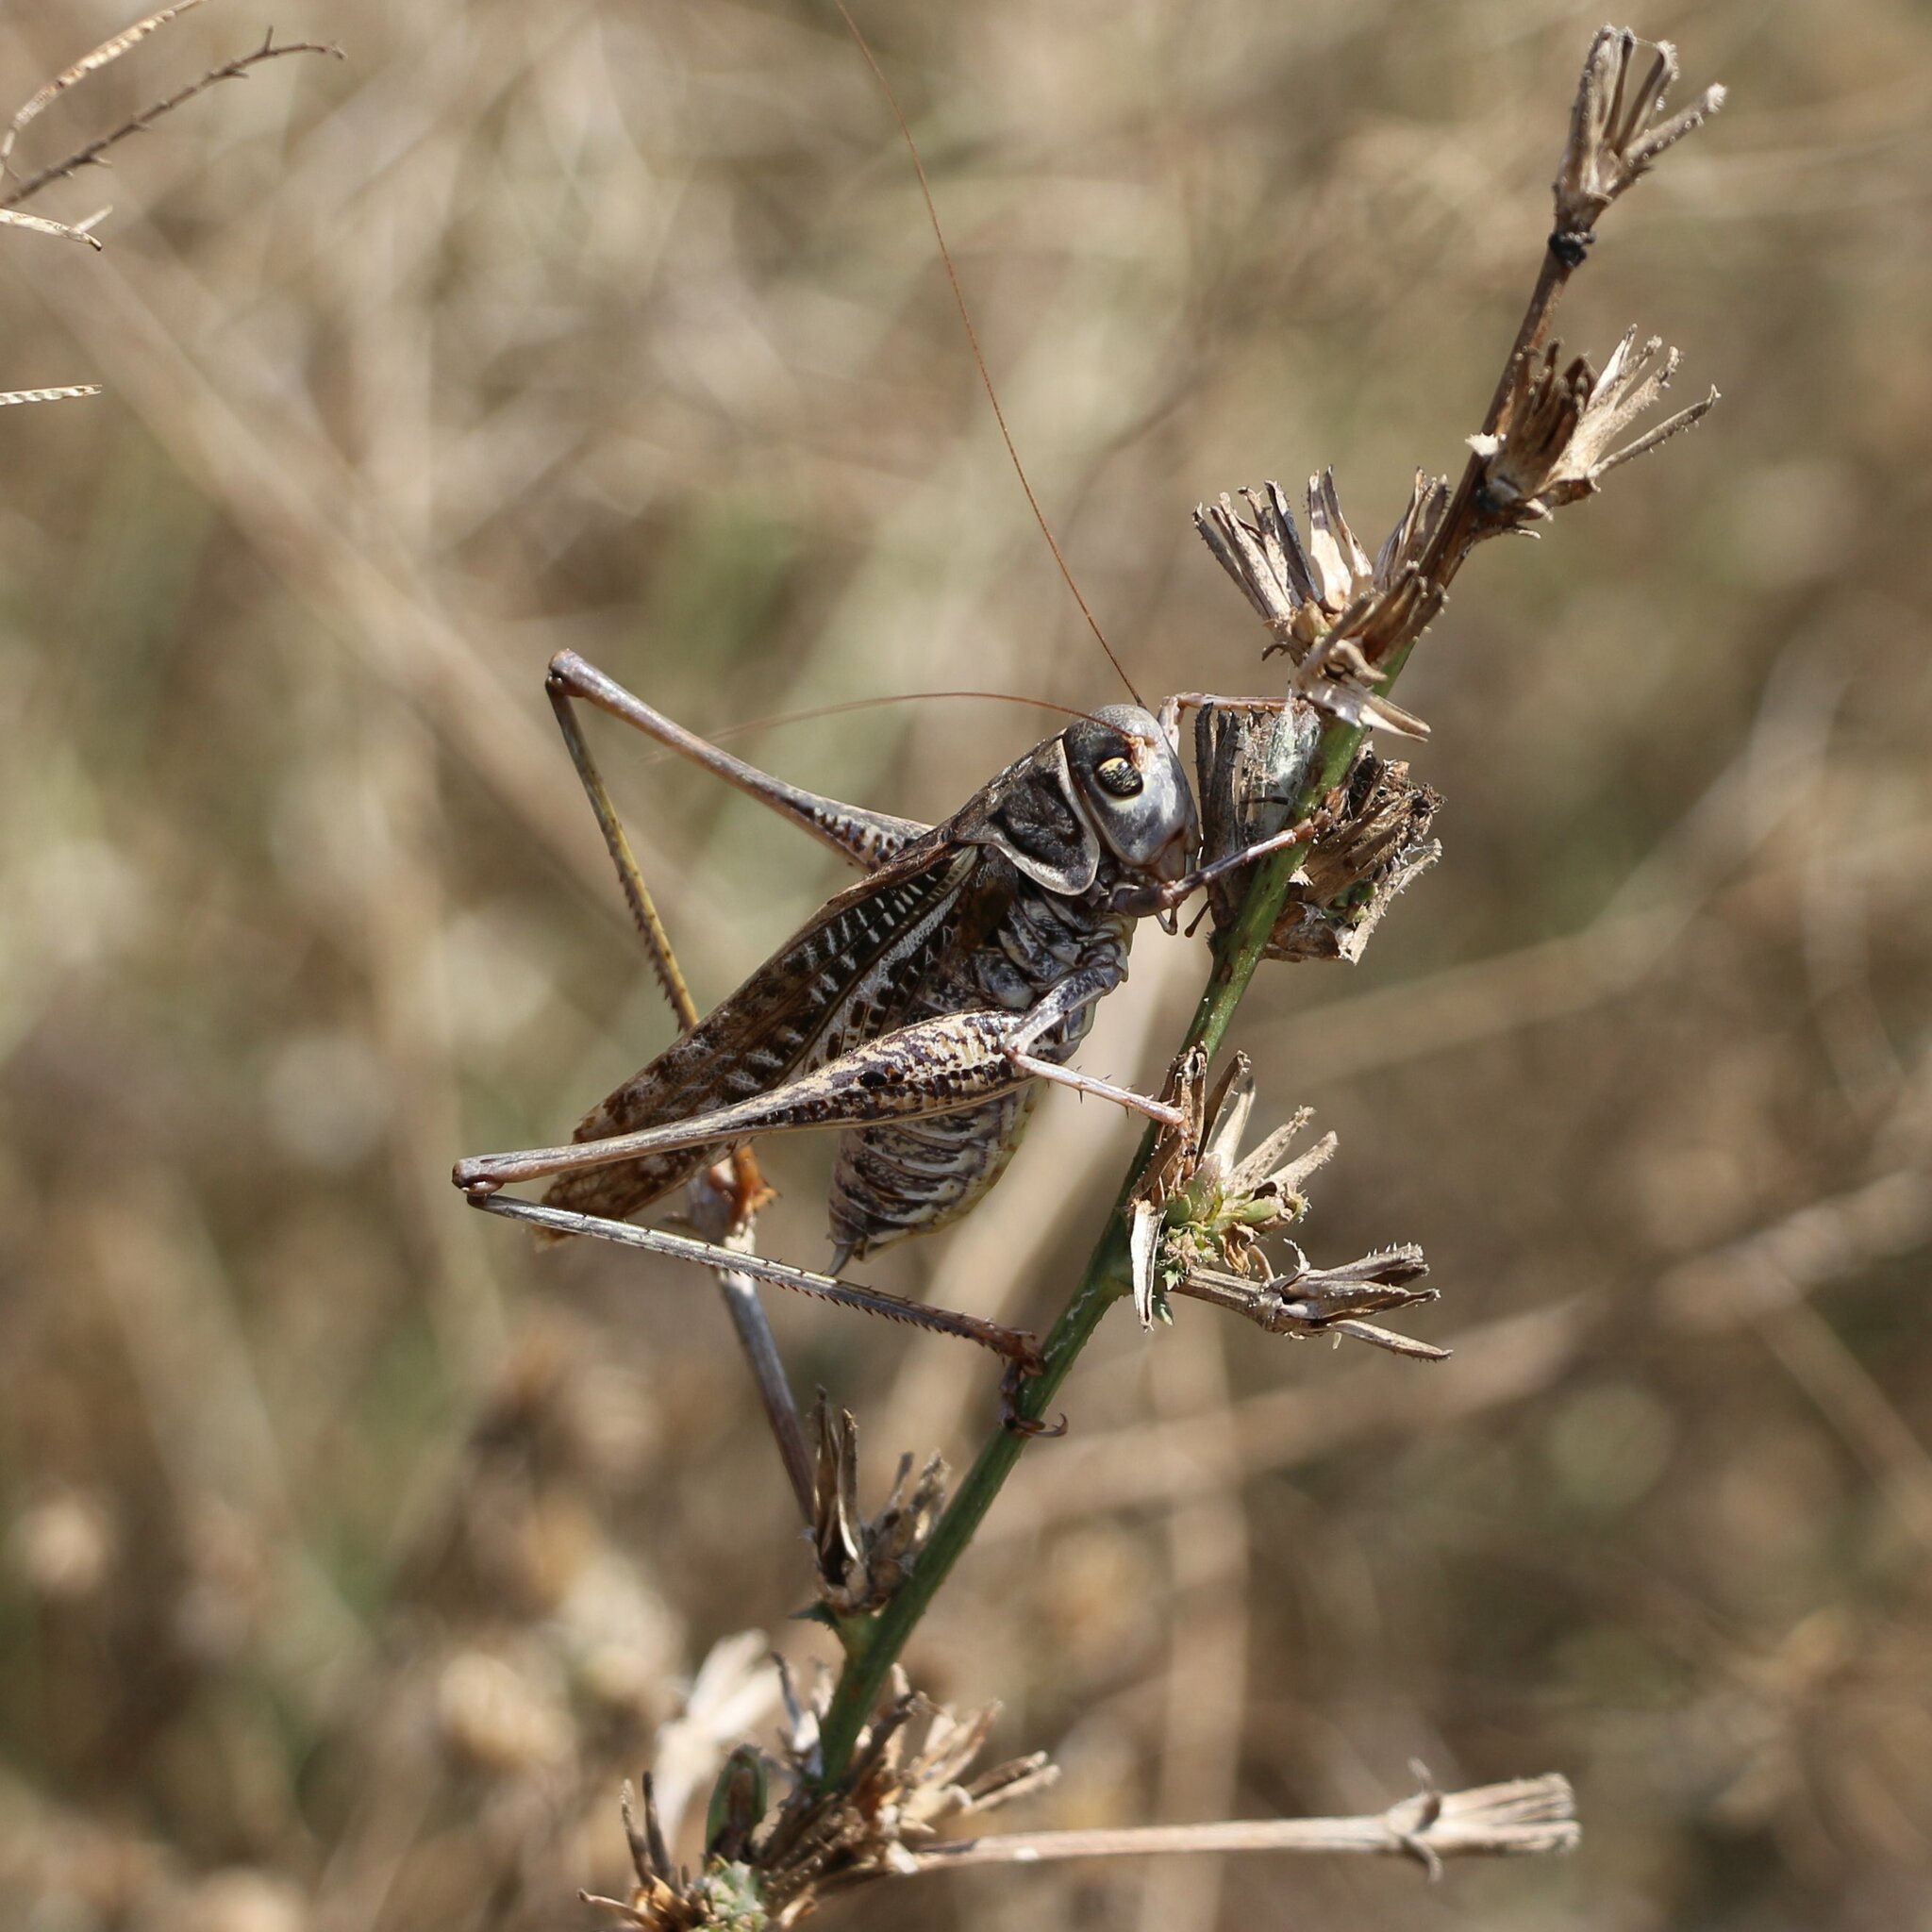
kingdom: Animalia
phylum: Arthropoda
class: Insecta
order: Orthoptera
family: Tettigoniidae
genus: Decticus
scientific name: Decticus albifrons
